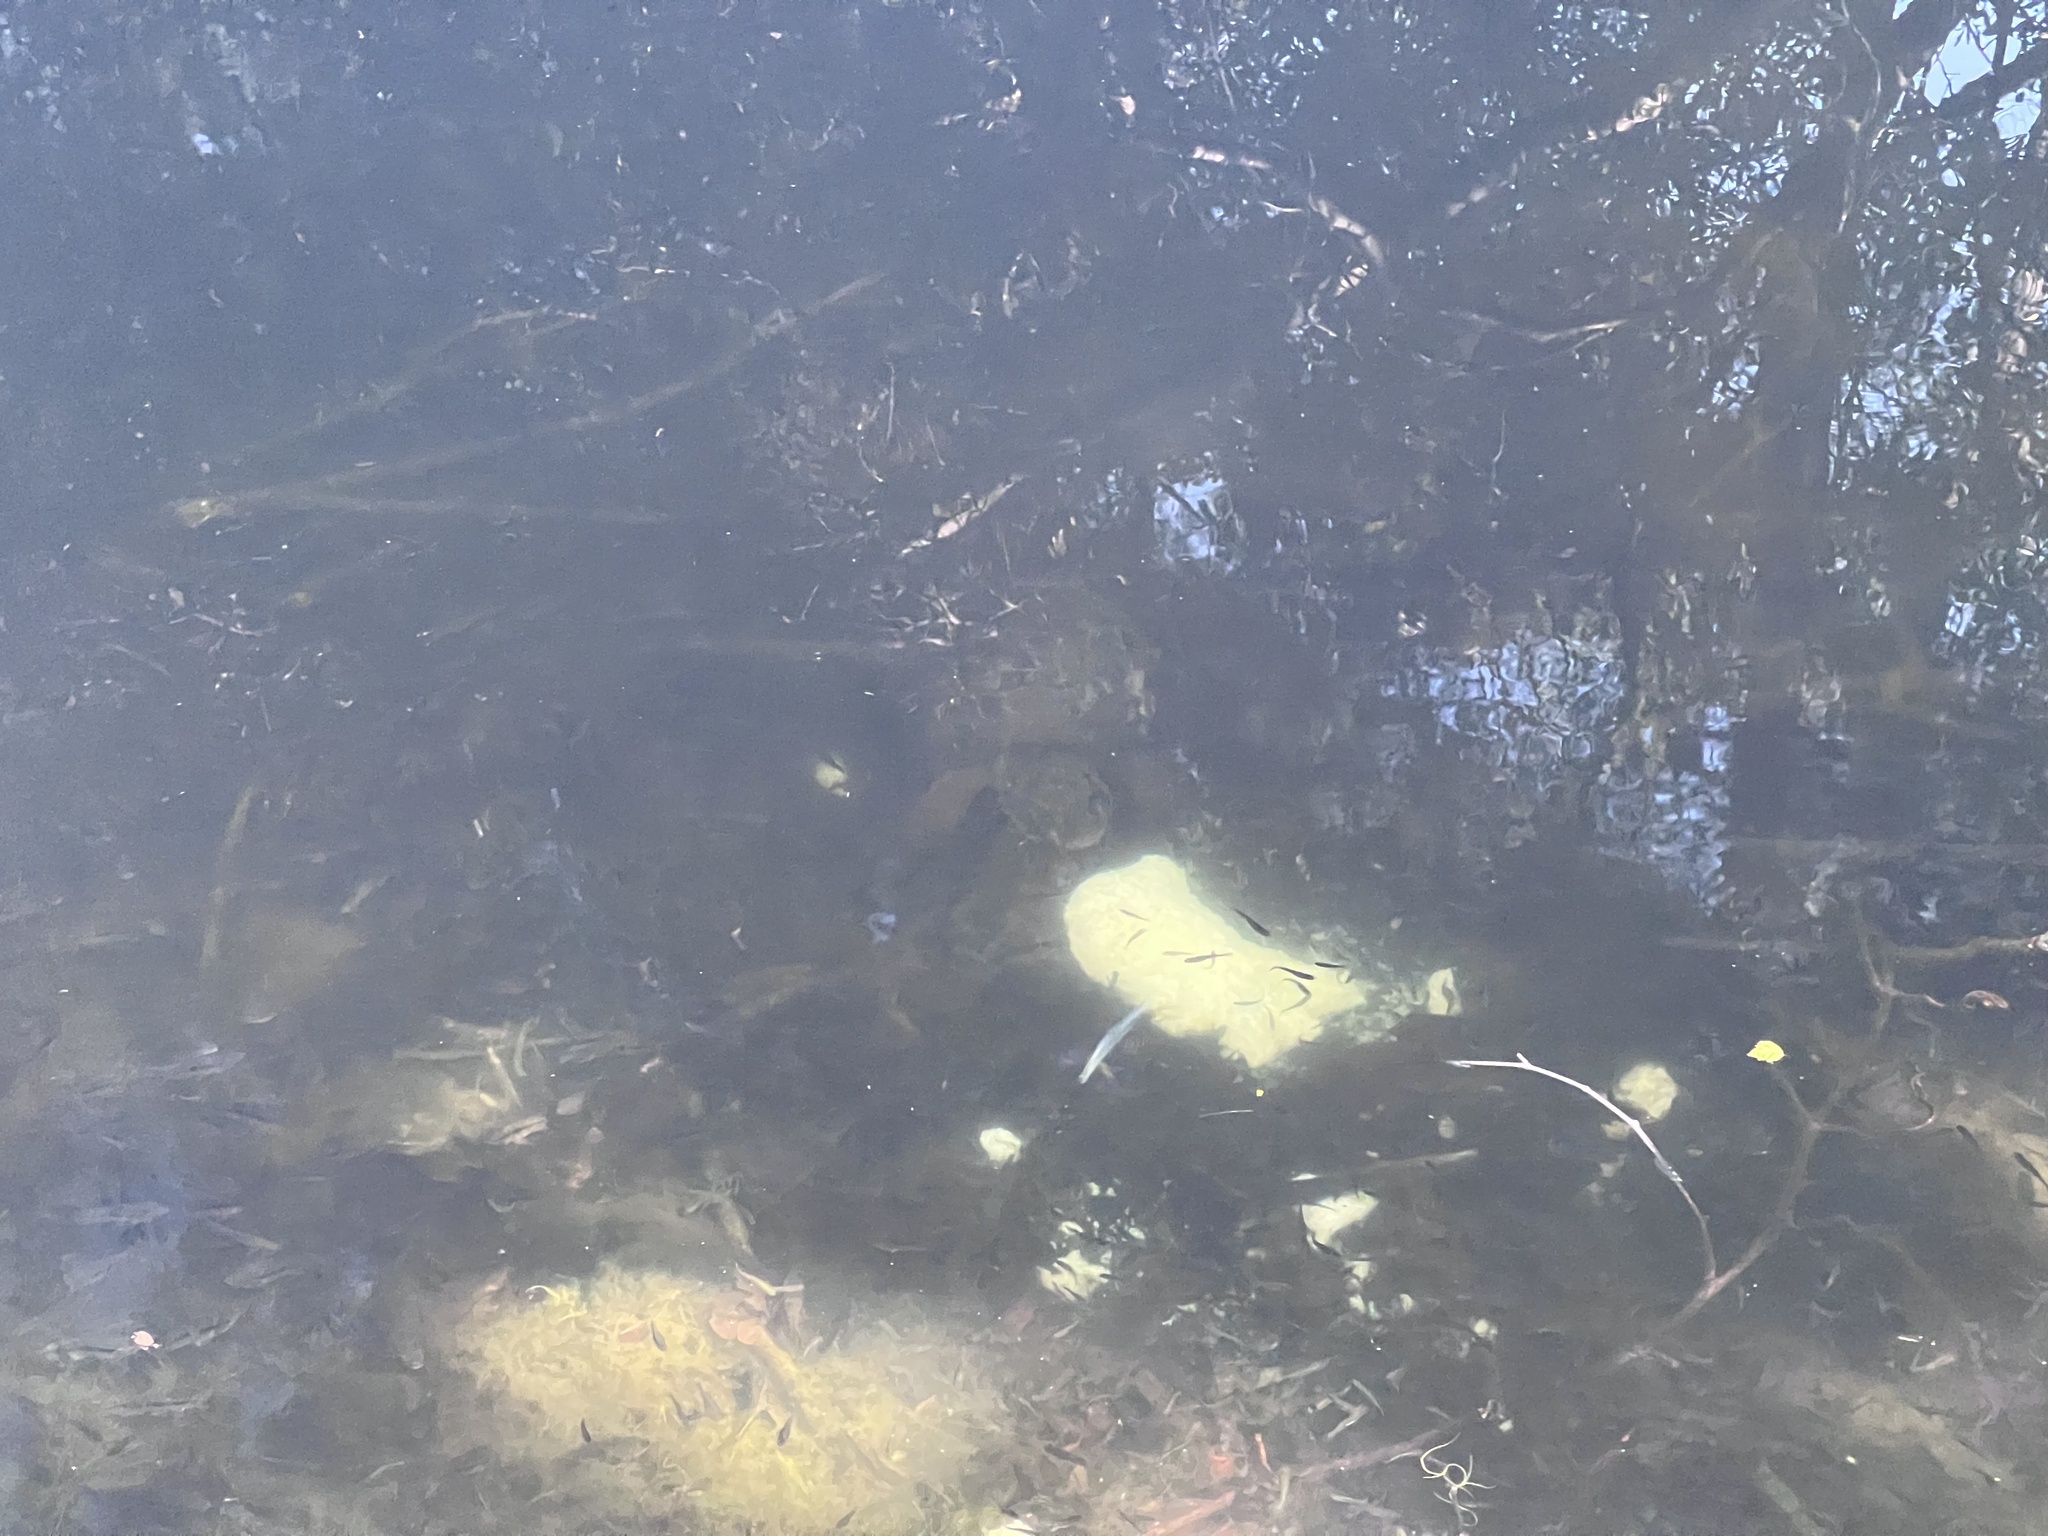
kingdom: Animalia
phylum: Chordata
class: Testudines
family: Chelydridae
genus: Chelydra
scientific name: Chelydra serpentina
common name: Common snapping turtle
